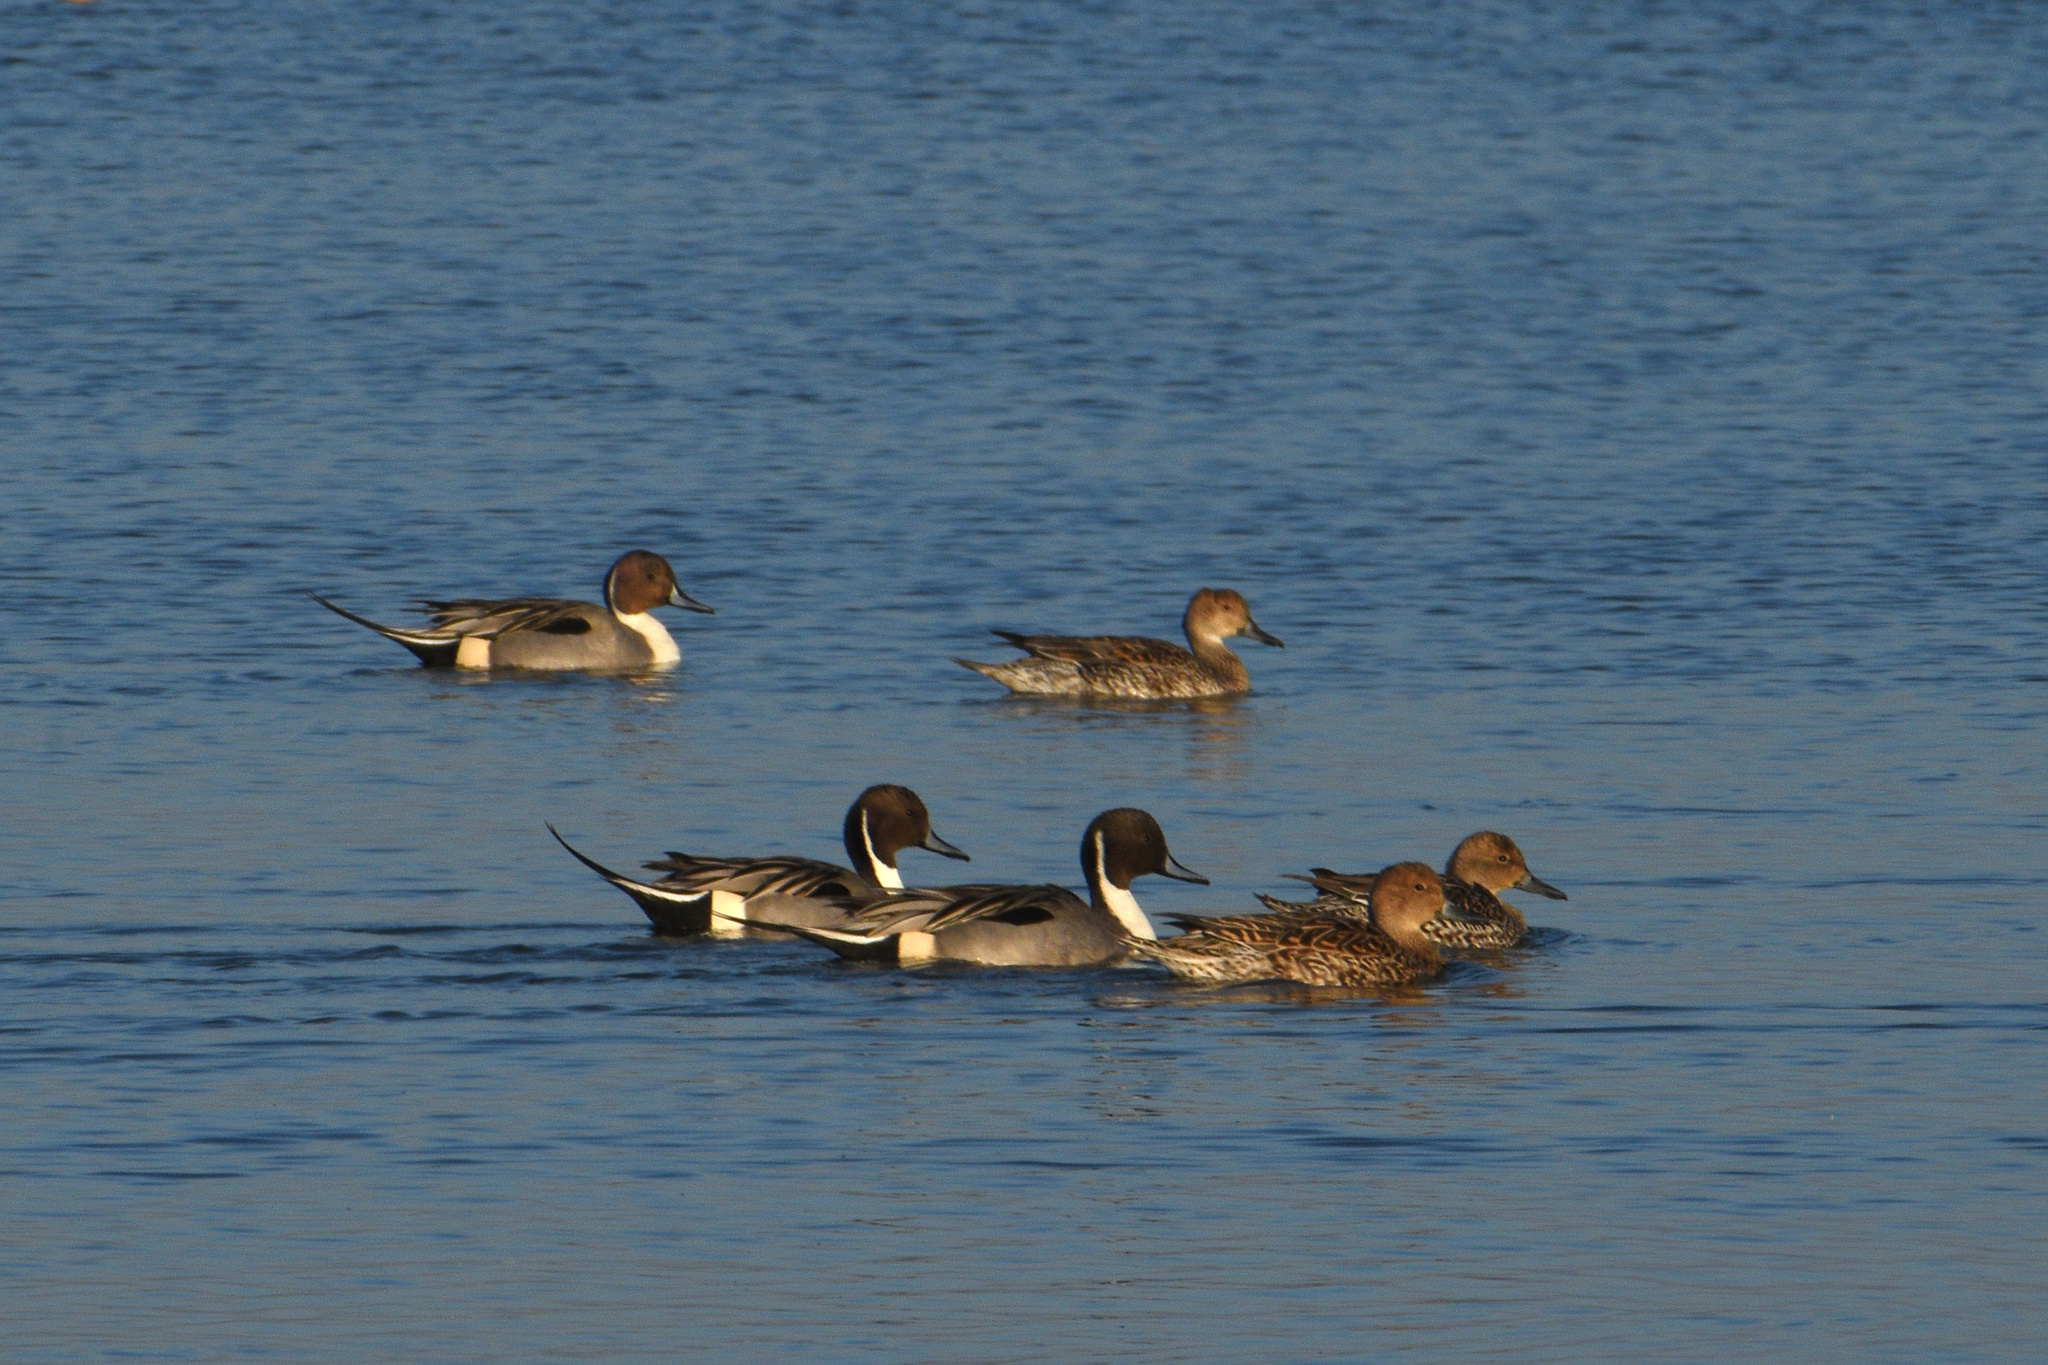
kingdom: Animalia
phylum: Chordata
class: Aves
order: Anseriformes
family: Anatidae
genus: Anas
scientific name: Anas acuta
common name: Northern pintail
